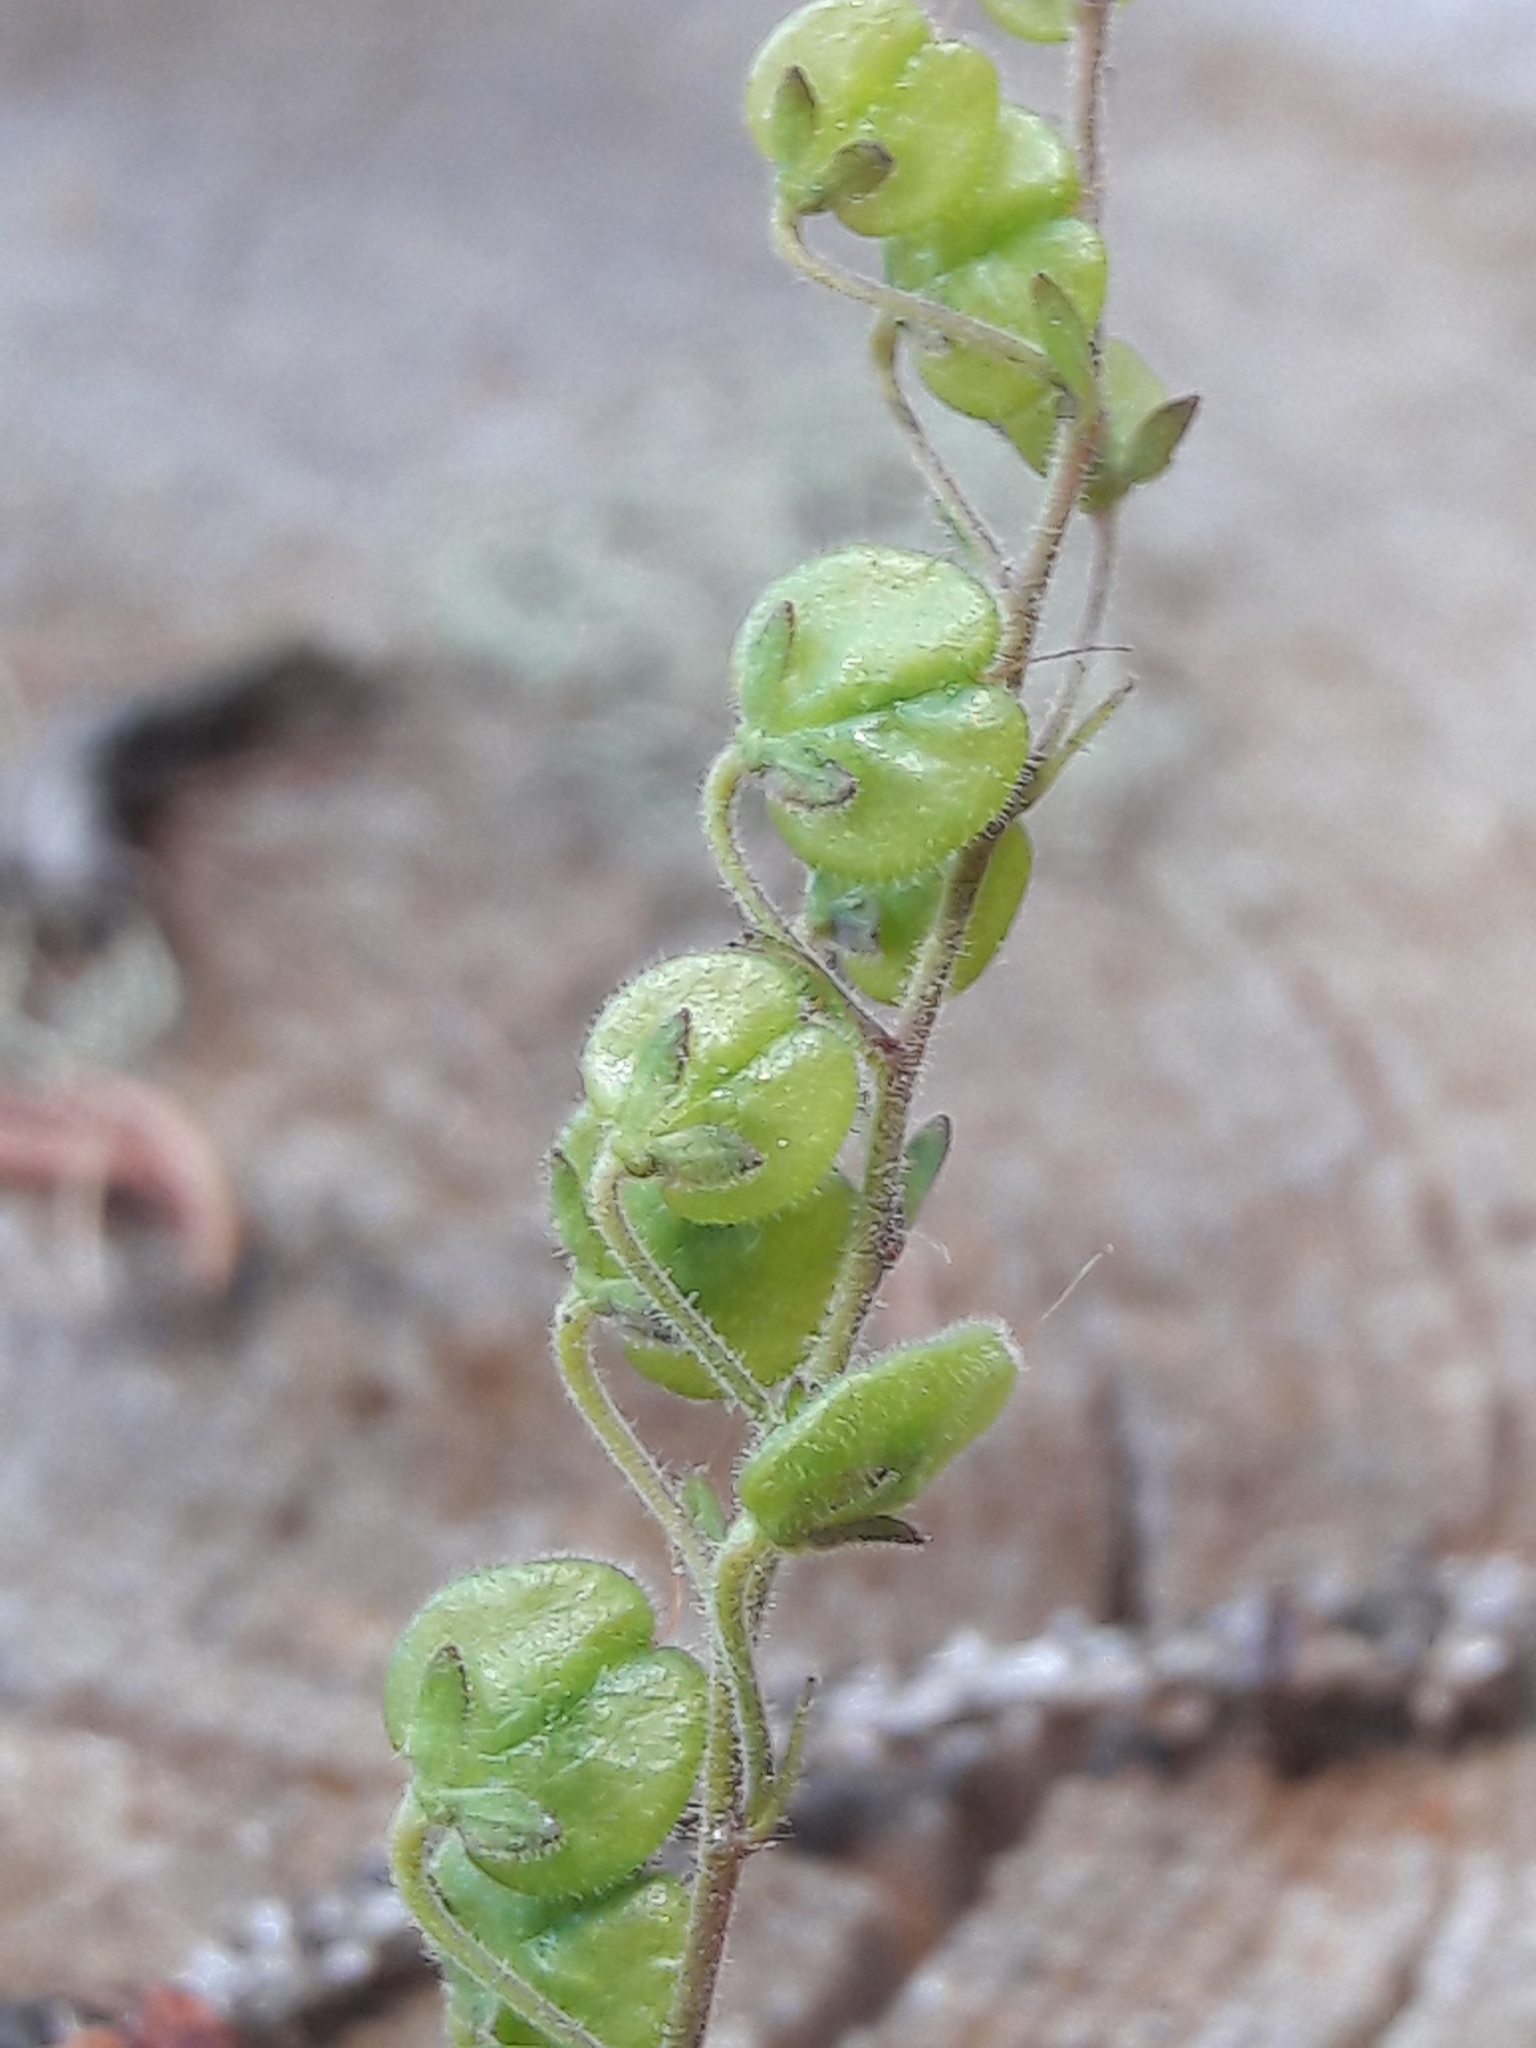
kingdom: Plantae
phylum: Tracheophyta
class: Magnoliopsida
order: Lamiales
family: Plantaginaceae
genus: Veronica
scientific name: Veronica urticifolia
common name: Nettle-leaf speedwell
